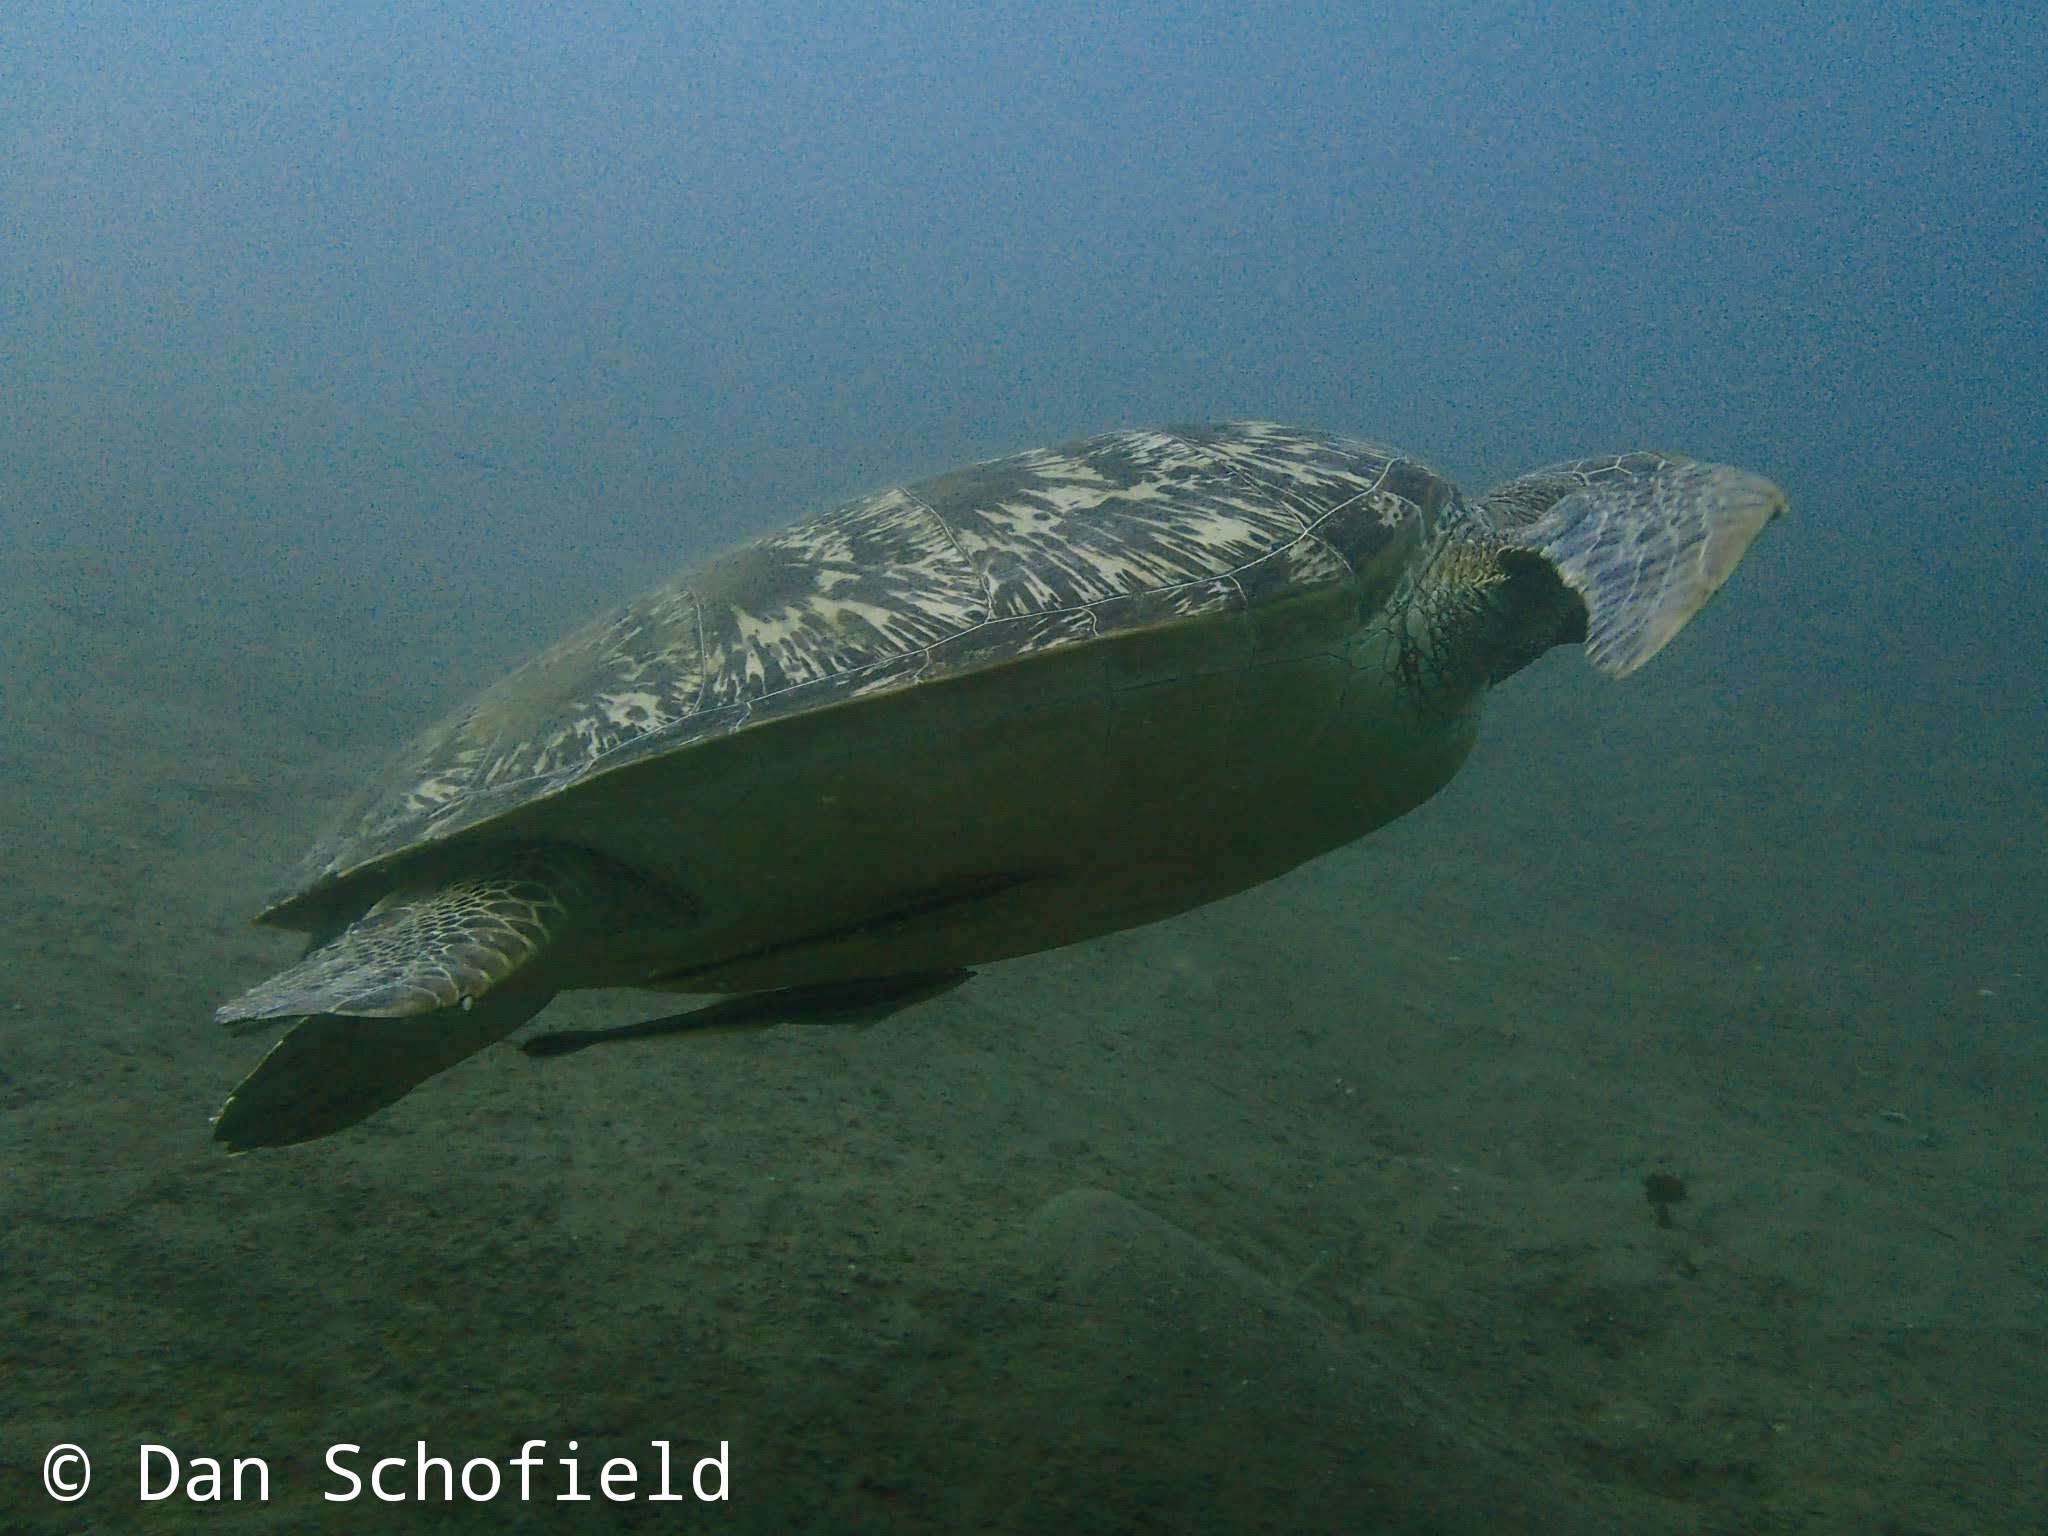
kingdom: Animalia
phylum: Chordata
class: Testudines
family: Cheloniidae
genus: Chelonia
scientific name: Chelonia mydas
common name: Green turtle
